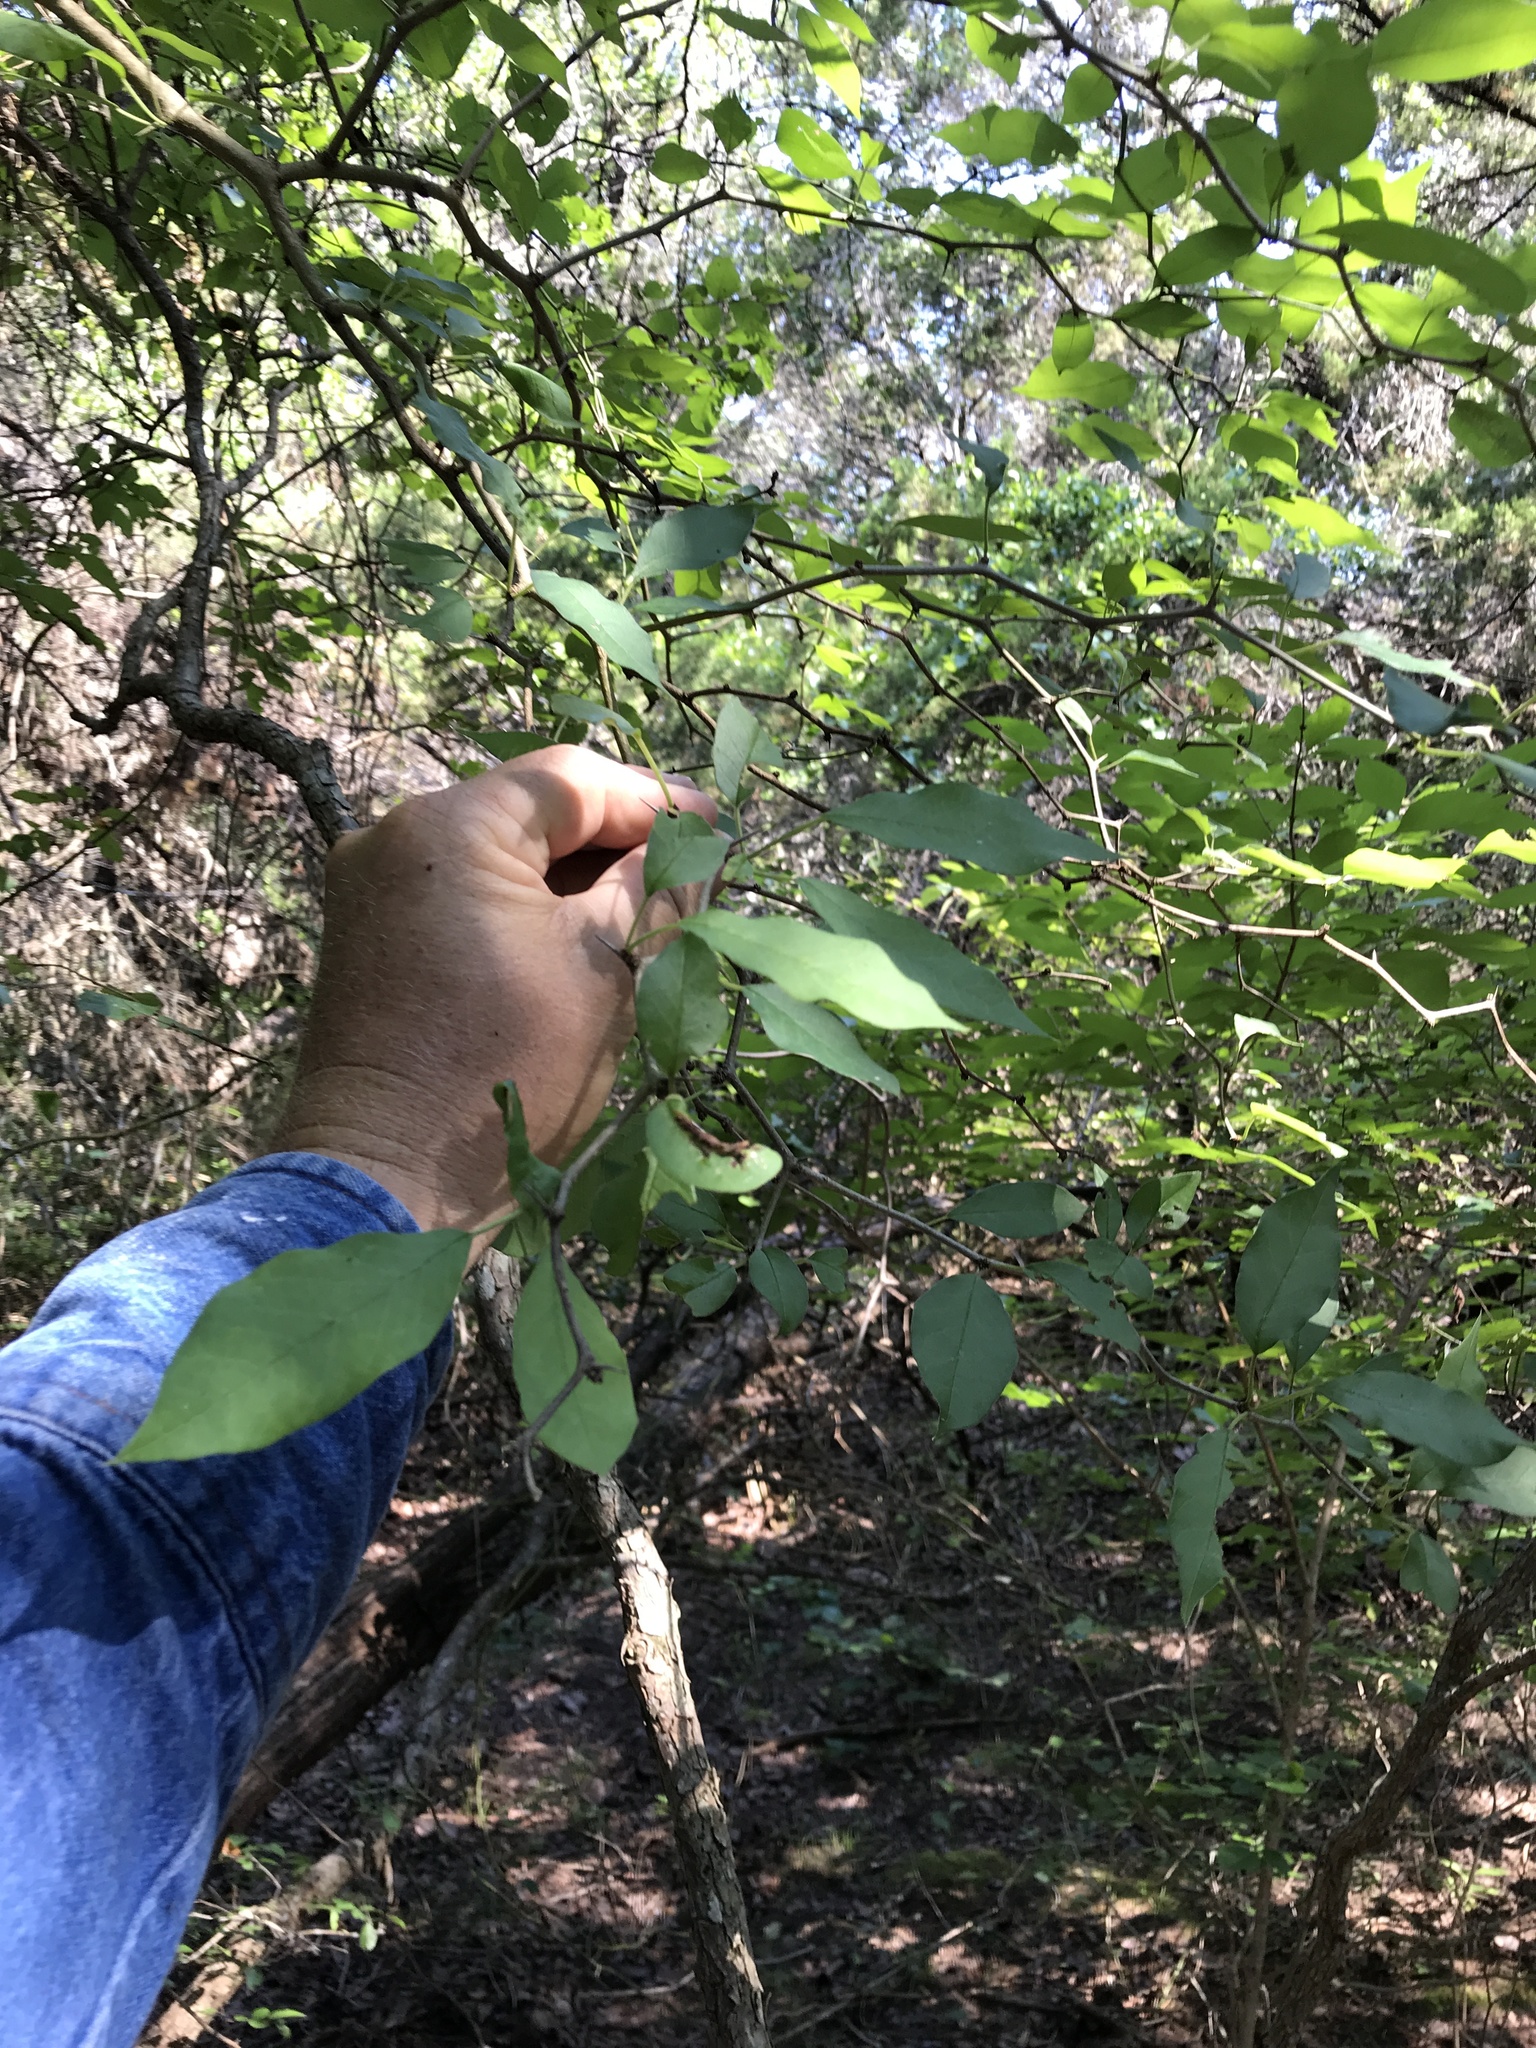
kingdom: Plantae
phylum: Tracheophyta
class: Magnoliopsida
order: Rosales
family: Moraceae
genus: Maclura
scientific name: Maclura pomifera
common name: Osage-orange
